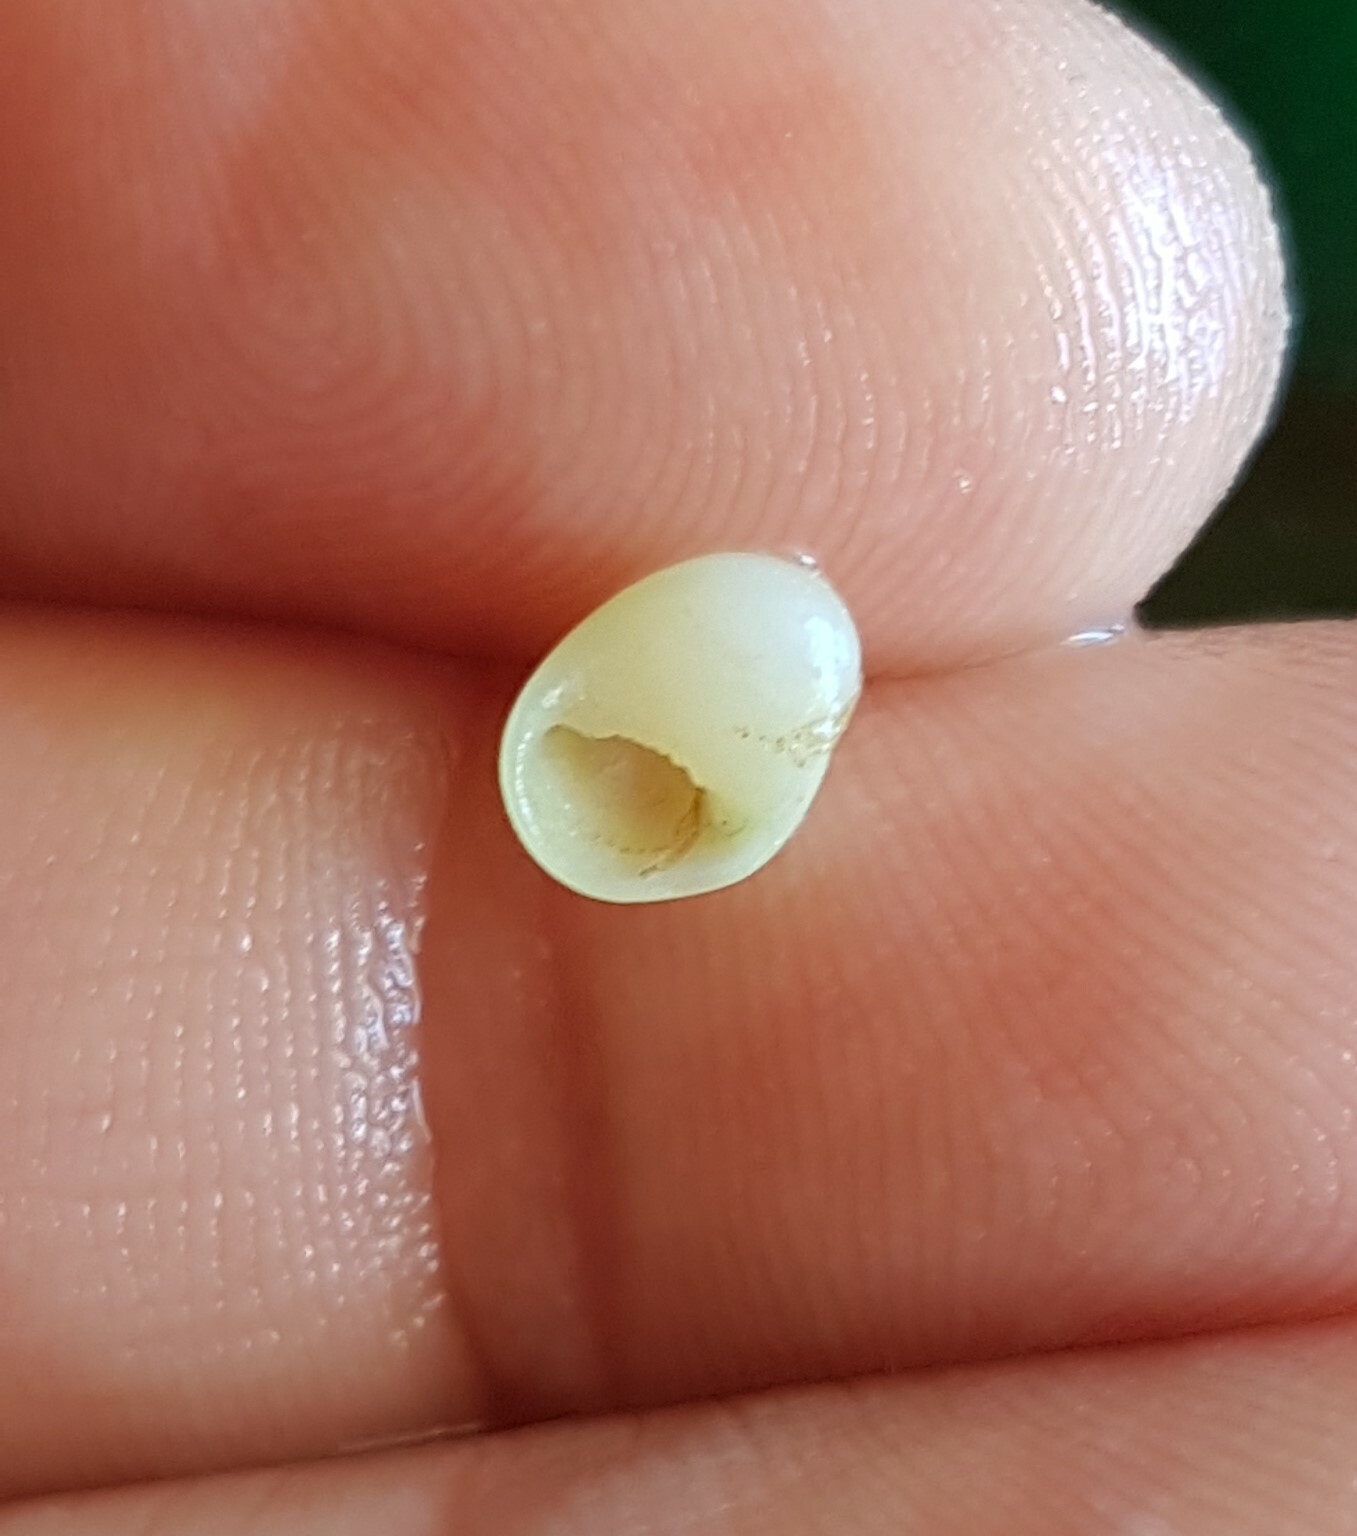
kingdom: Animalia
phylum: Mollusca
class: Gastropoda
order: Cycloneritida
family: Neritidae
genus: Smaragdia
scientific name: Smaragdia viridis
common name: Emerald nerite
